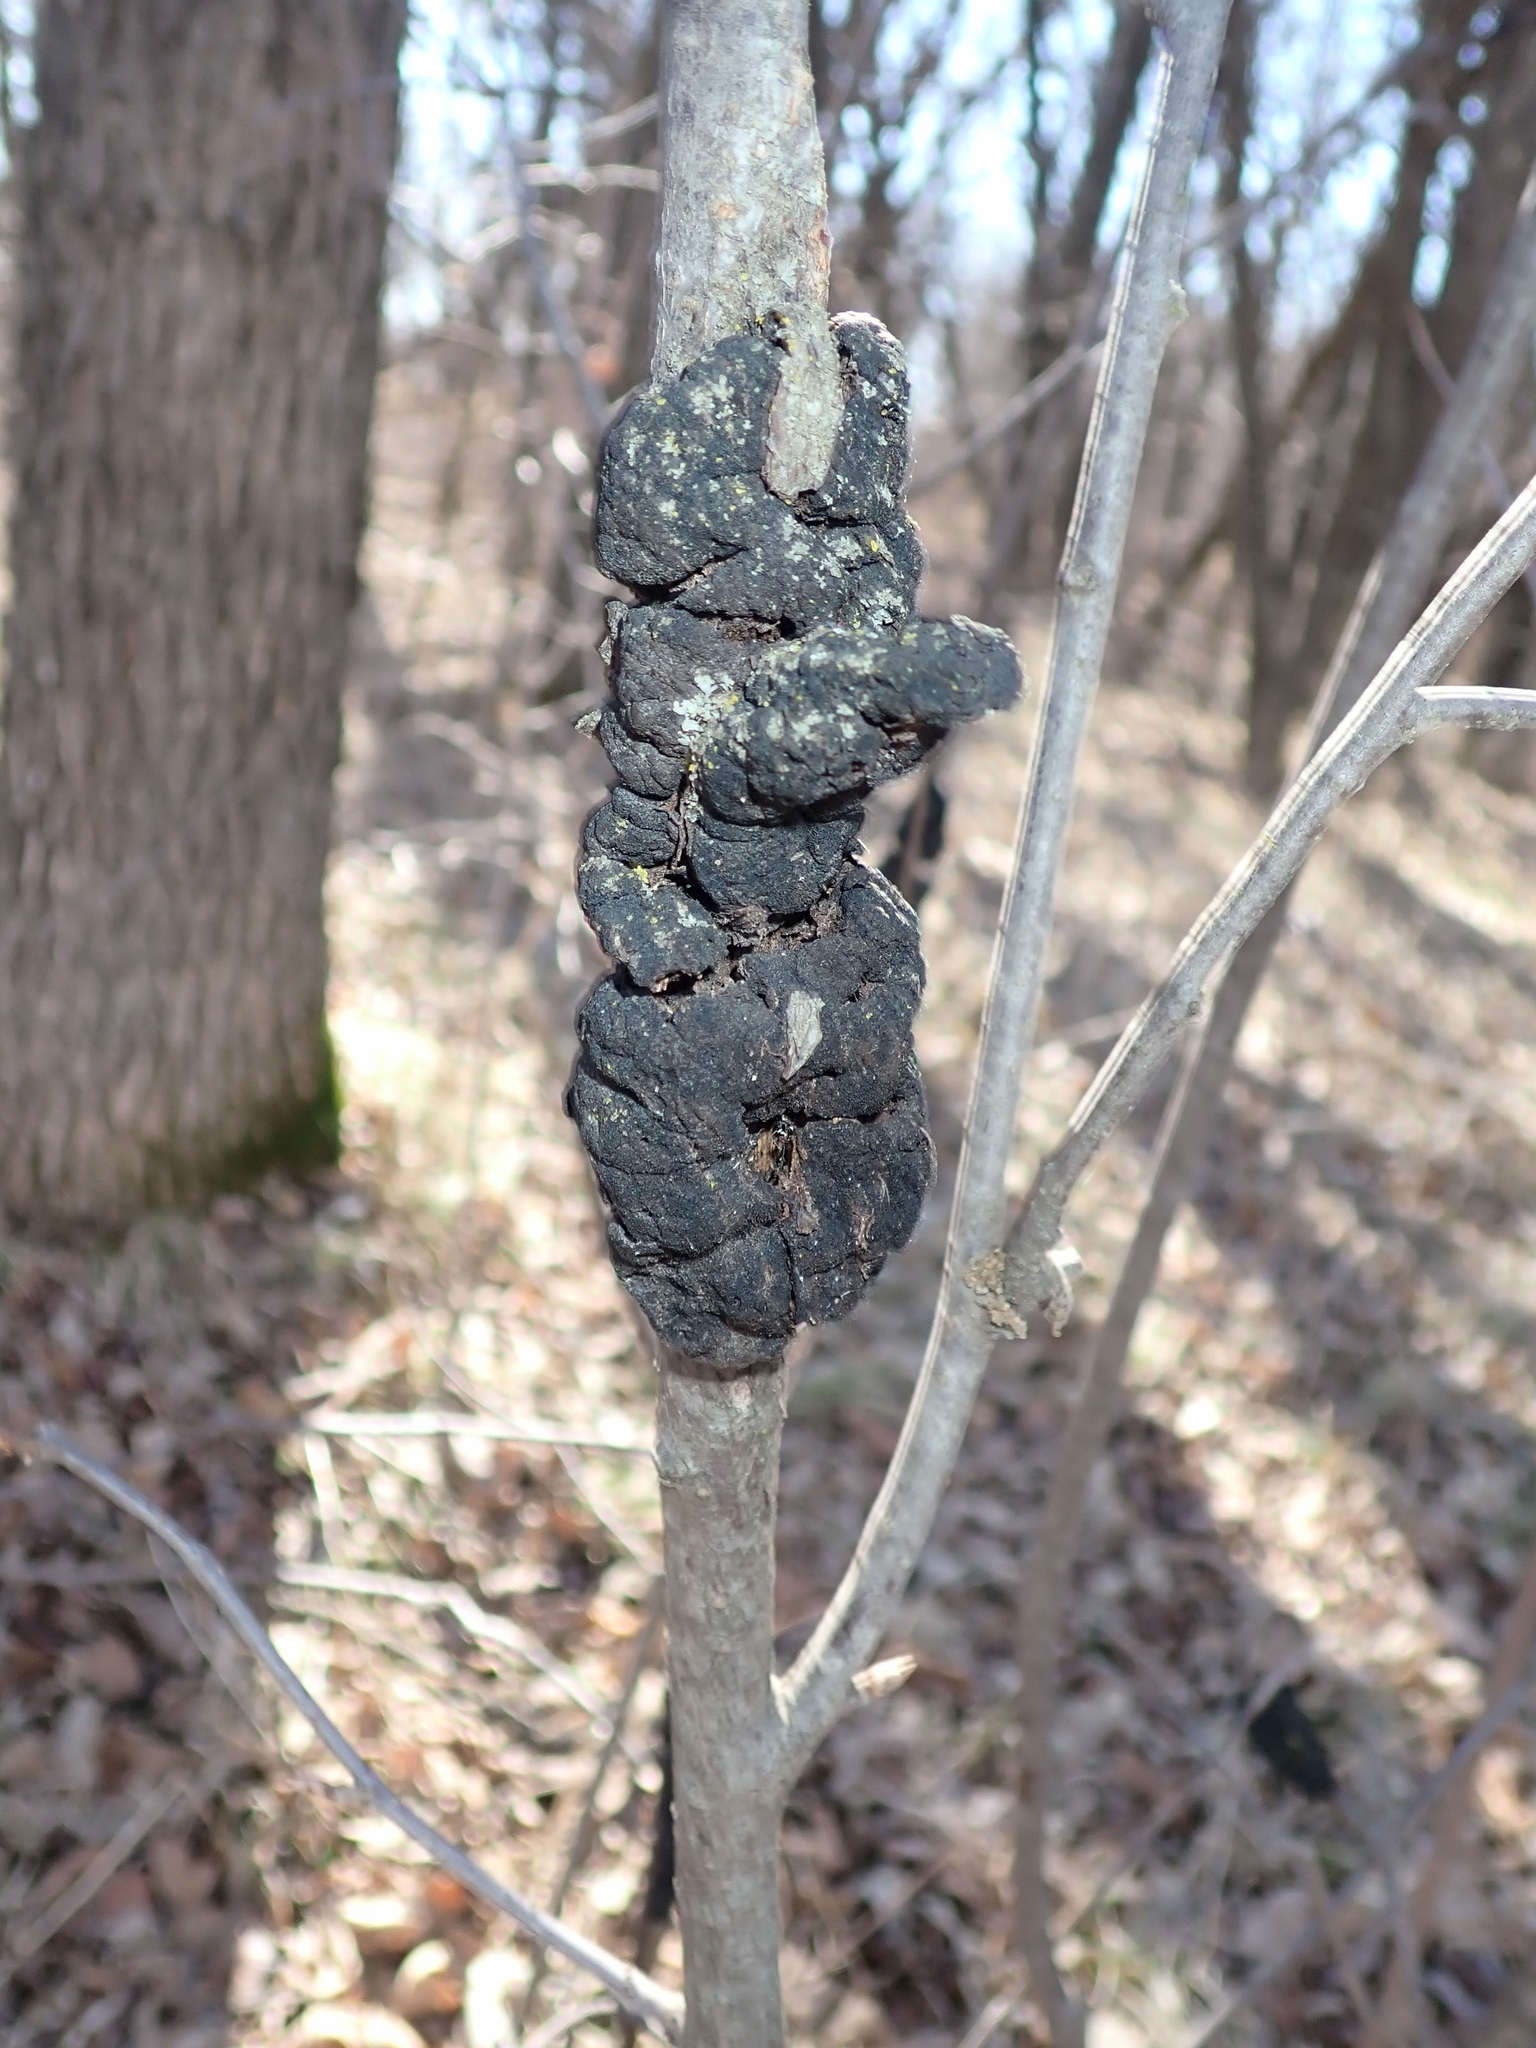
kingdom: Fungi
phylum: Ascomycota
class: Dothideomycetes
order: Venturiales
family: Venturiaceae
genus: Apiosporina
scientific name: Apiosporina morbosa
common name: Black knot
